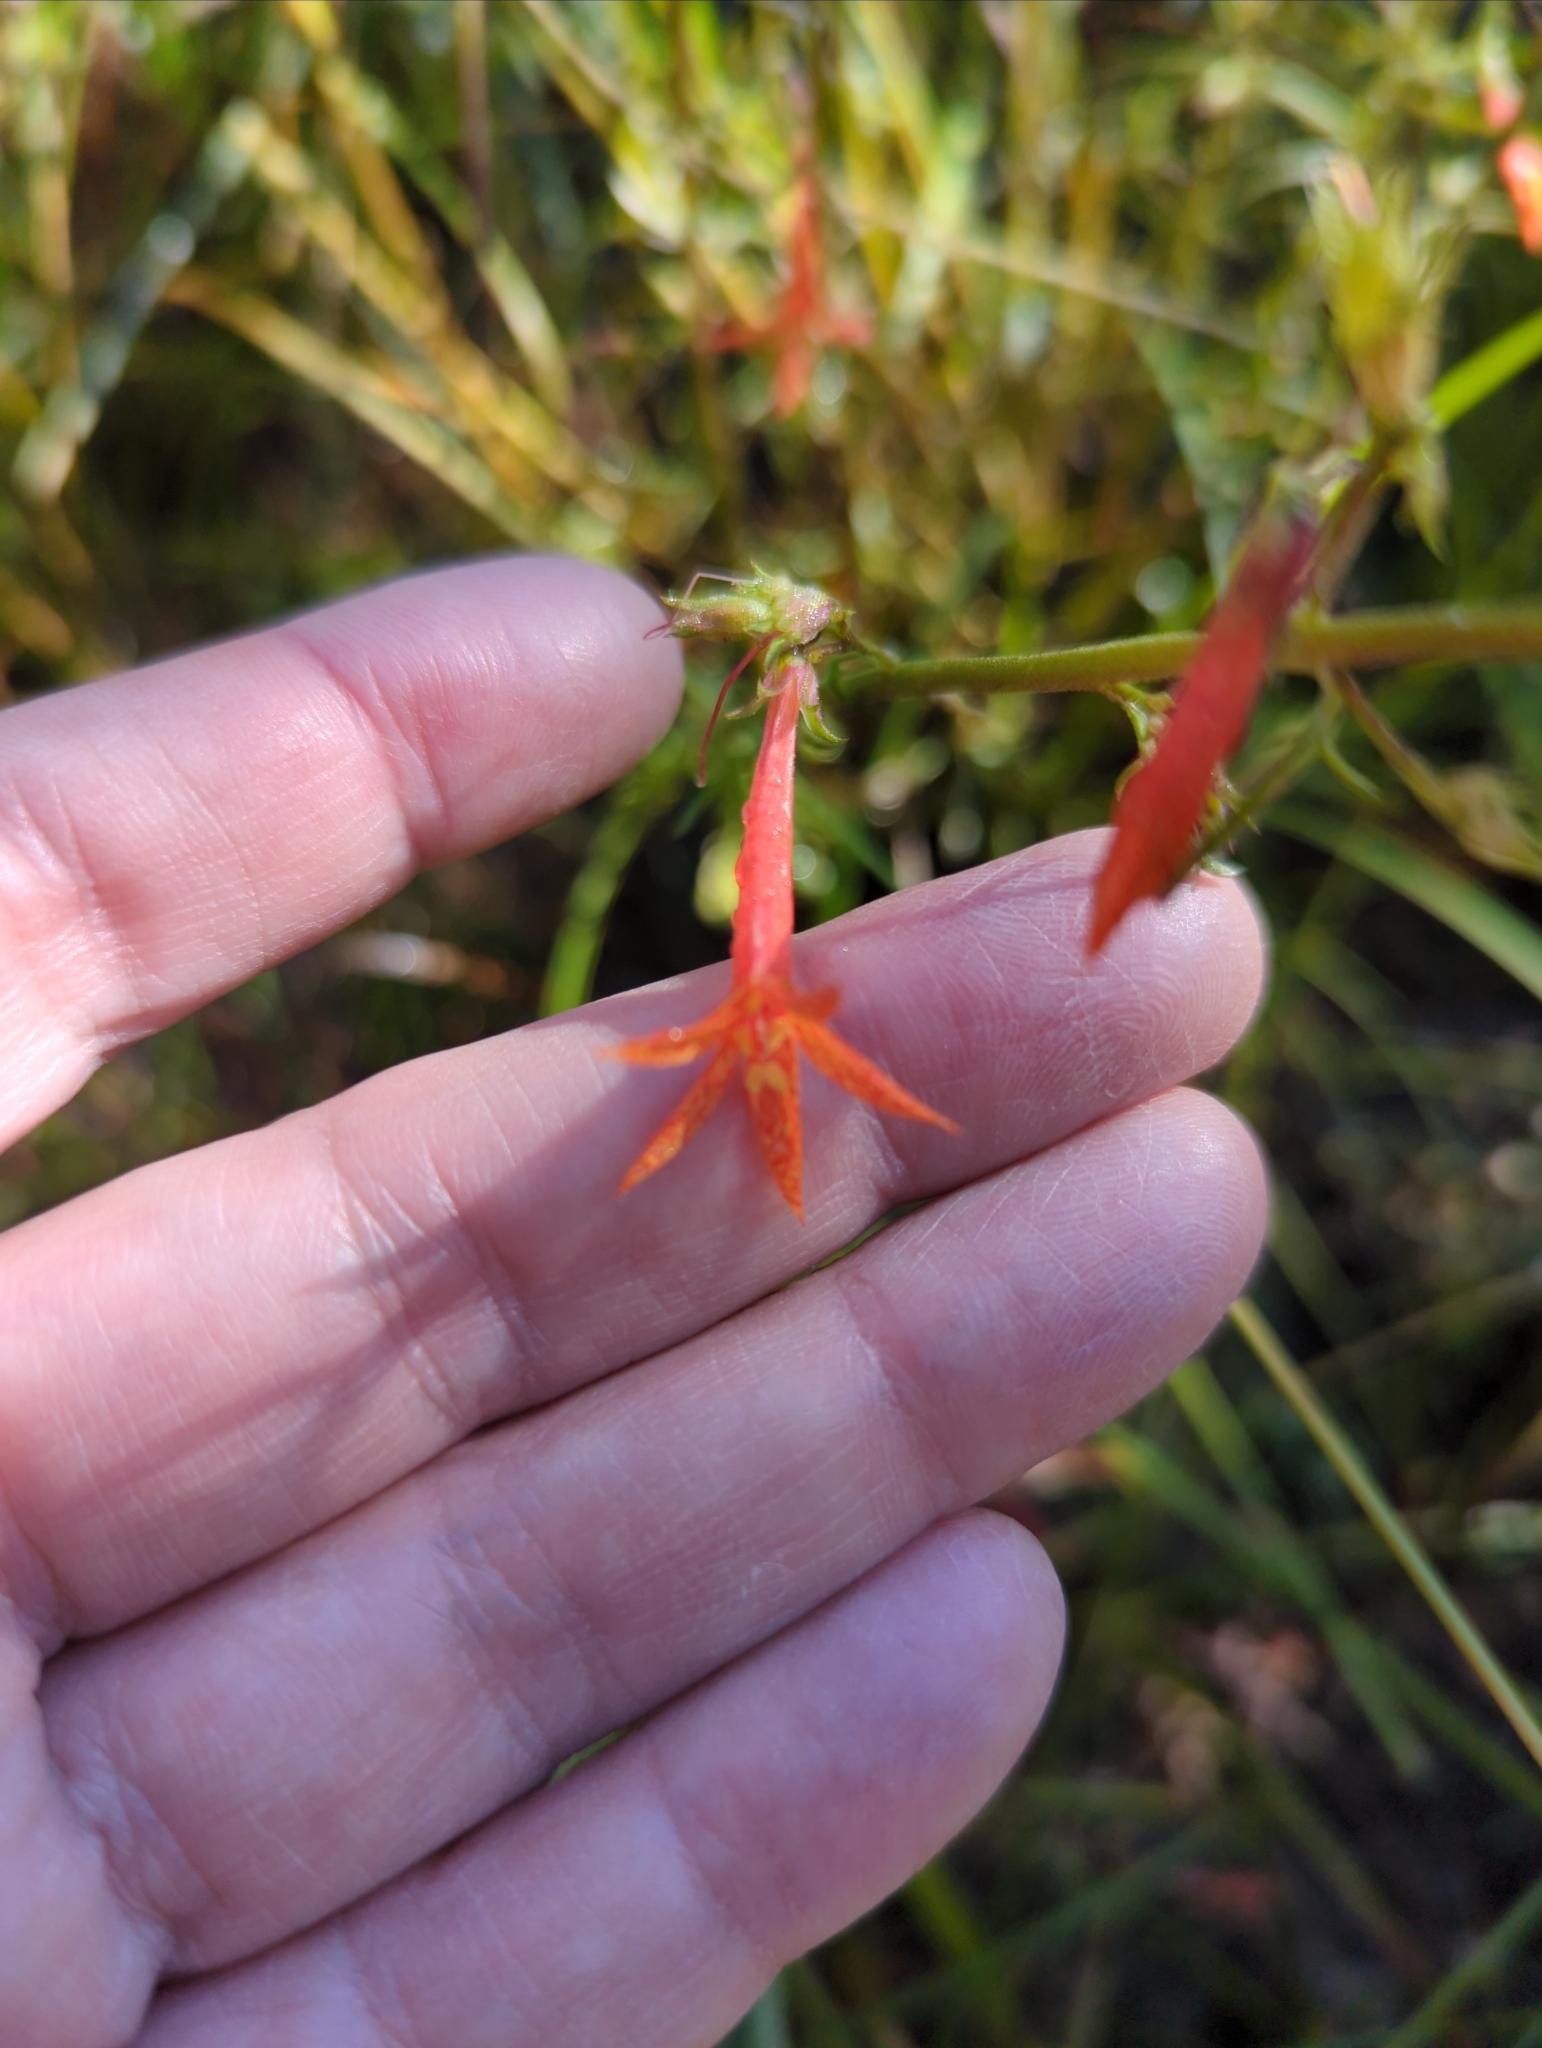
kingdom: Plantae
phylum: Tracheophyta
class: Magnoliopsida
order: Ericales
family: Polemoniaceae
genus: Ipomopsis
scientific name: Ipomopsis aggregata
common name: Scarlet gilia
